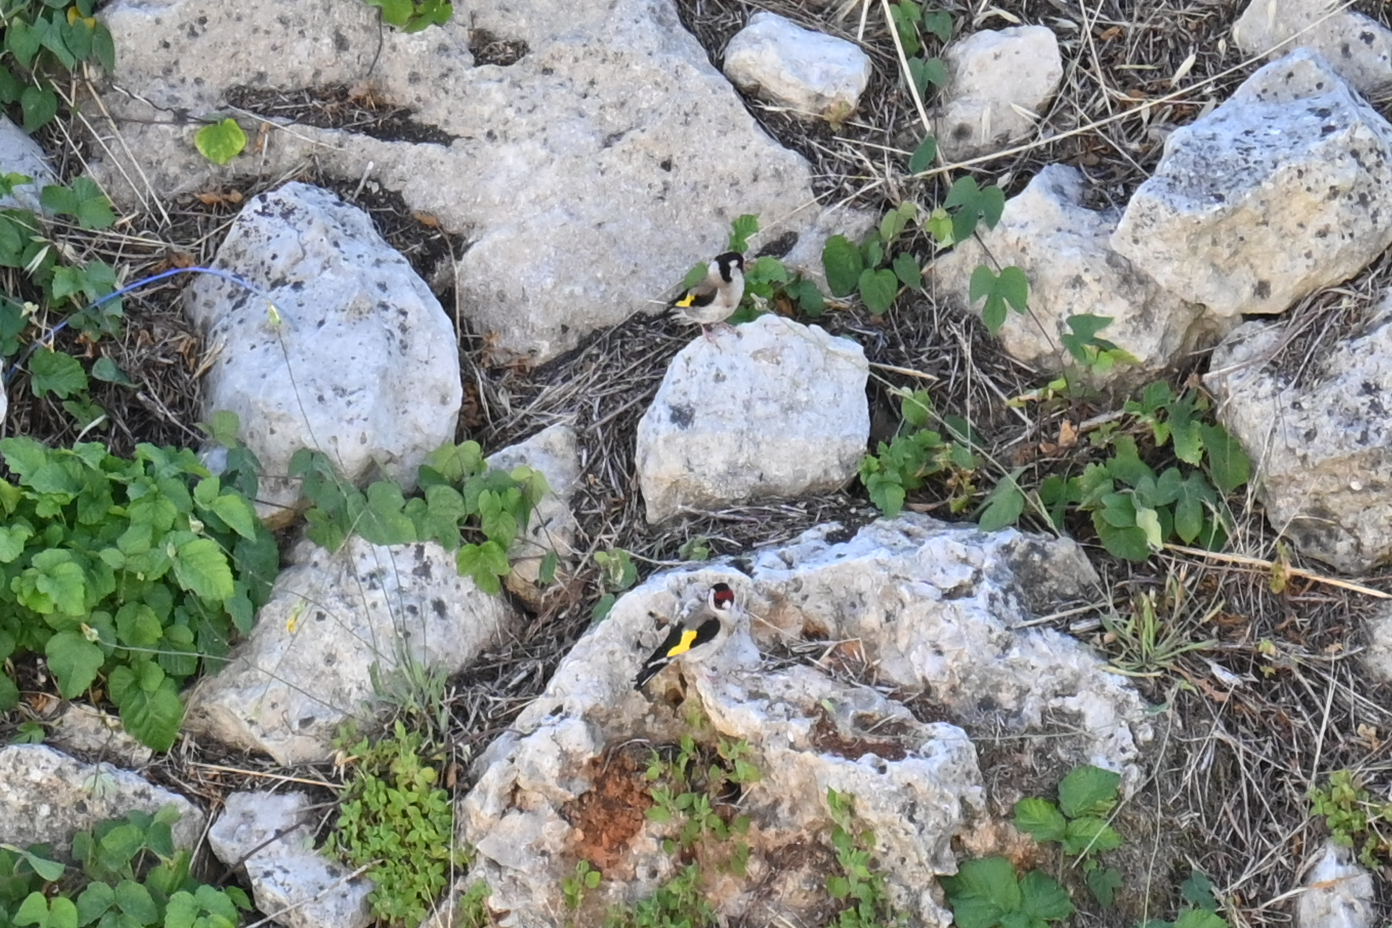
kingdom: Animalia
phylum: Chordata
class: Aves
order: Passeriformes
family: Fringillidae
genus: Carduelis
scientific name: Carduelis carduelis
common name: European goldfinch
